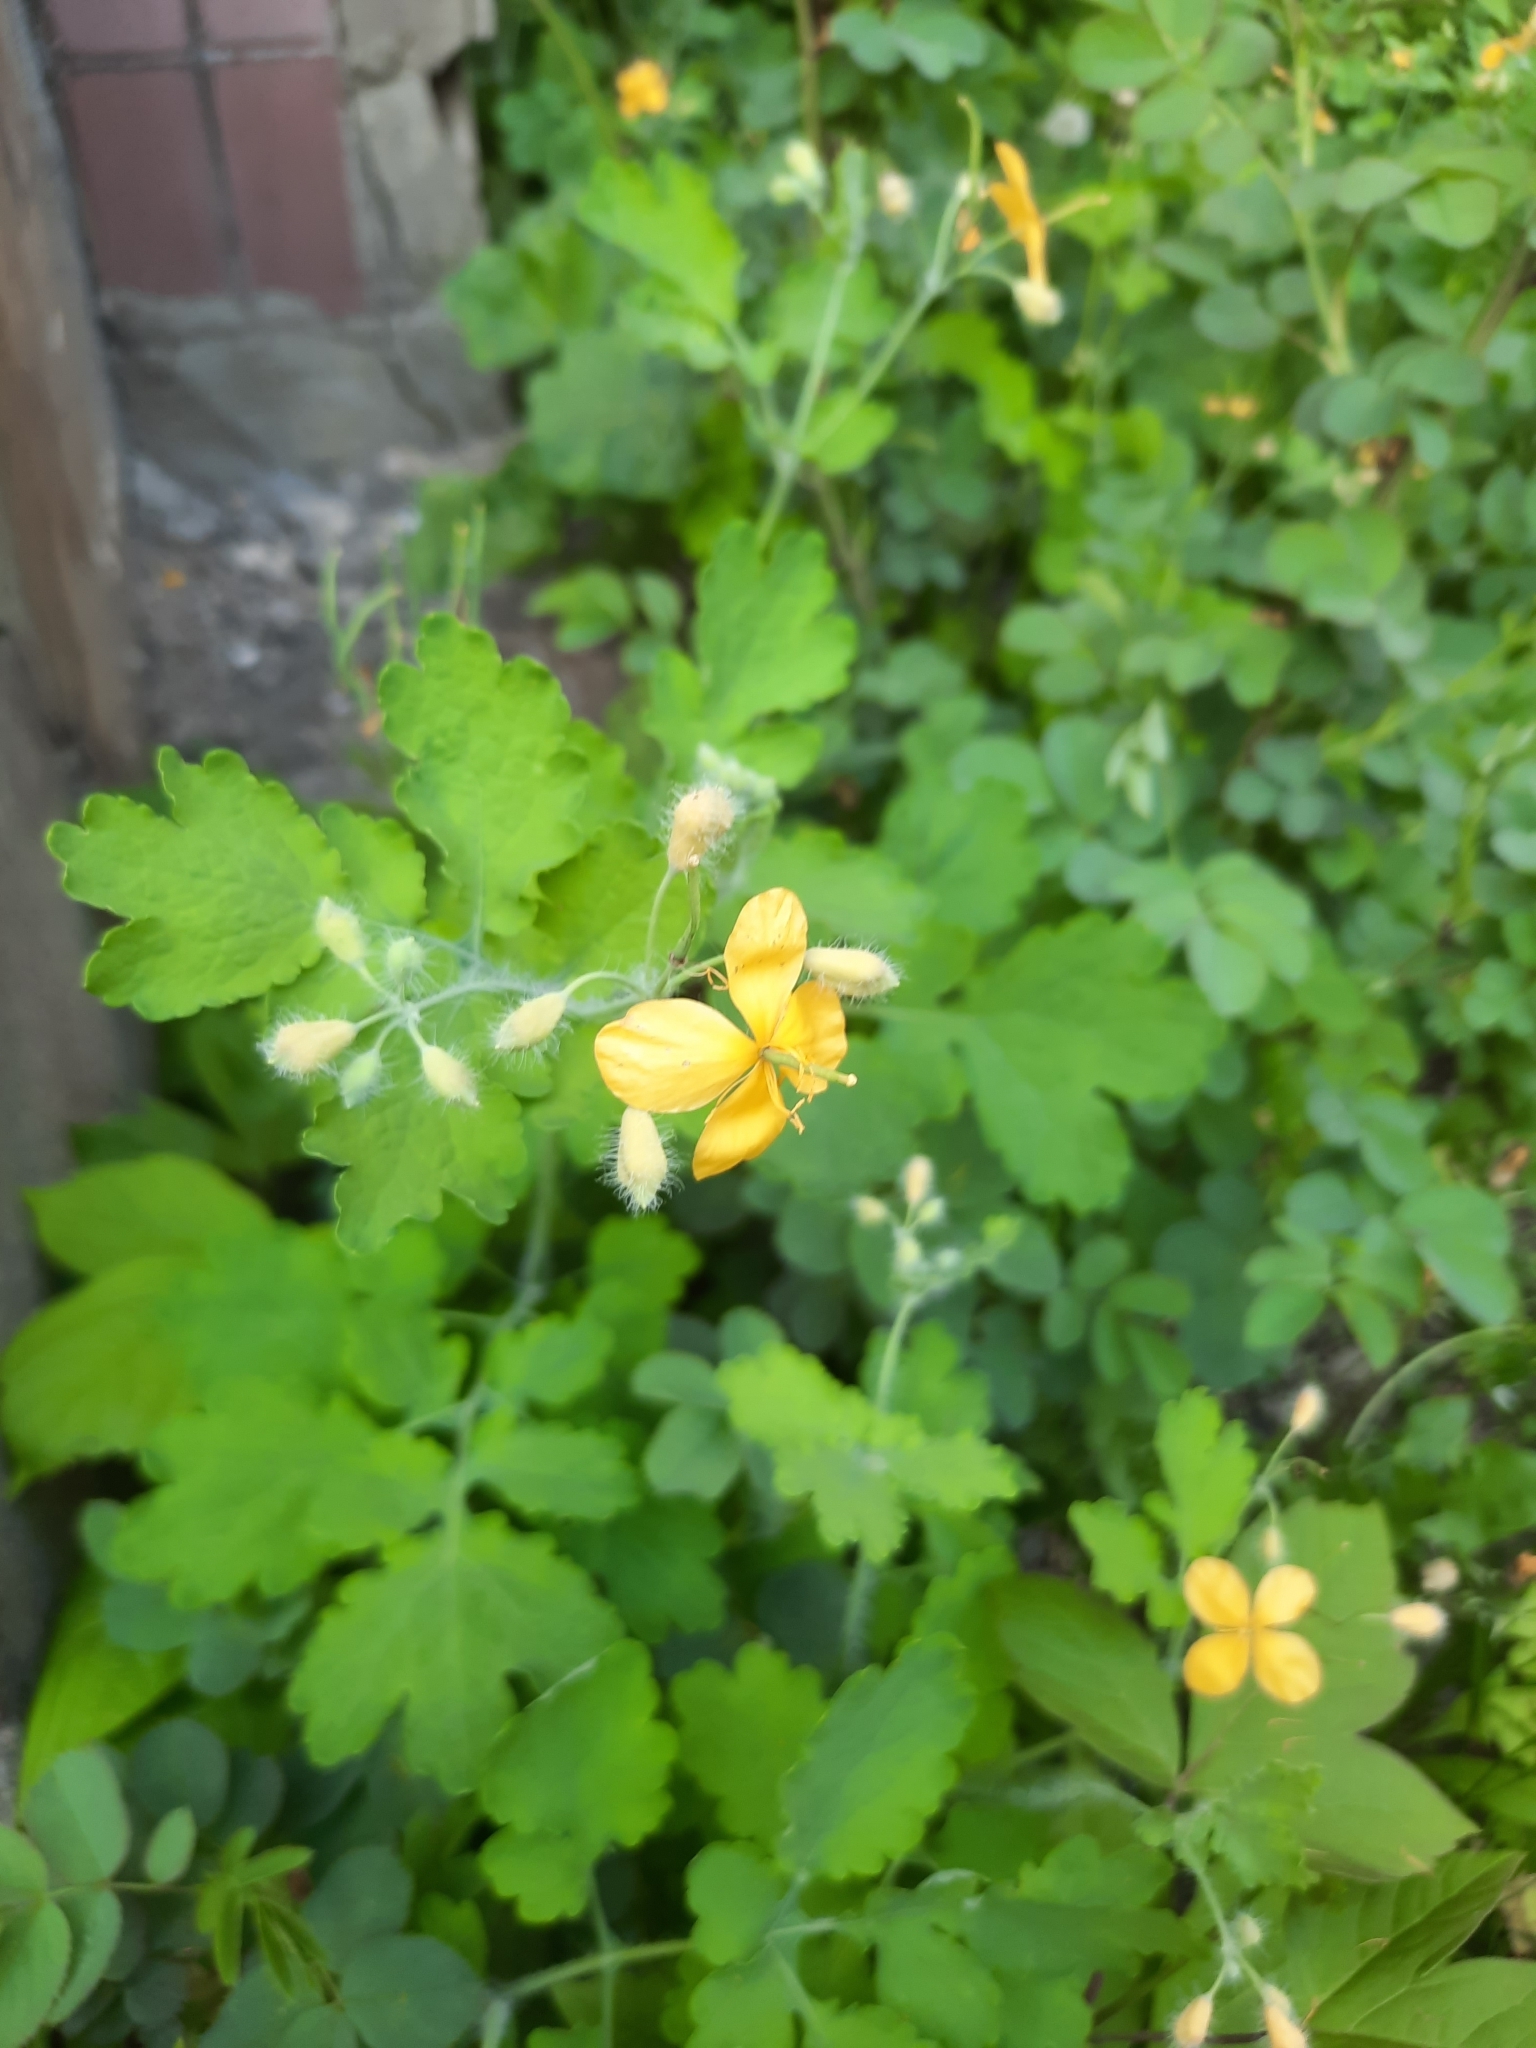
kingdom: Plantae
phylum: Tracheophyta
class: Magnoliopsida
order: Ranunculales
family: Papaveraceae
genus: Chelidonium
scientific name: Chelidonium majus
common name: Greater celandine
